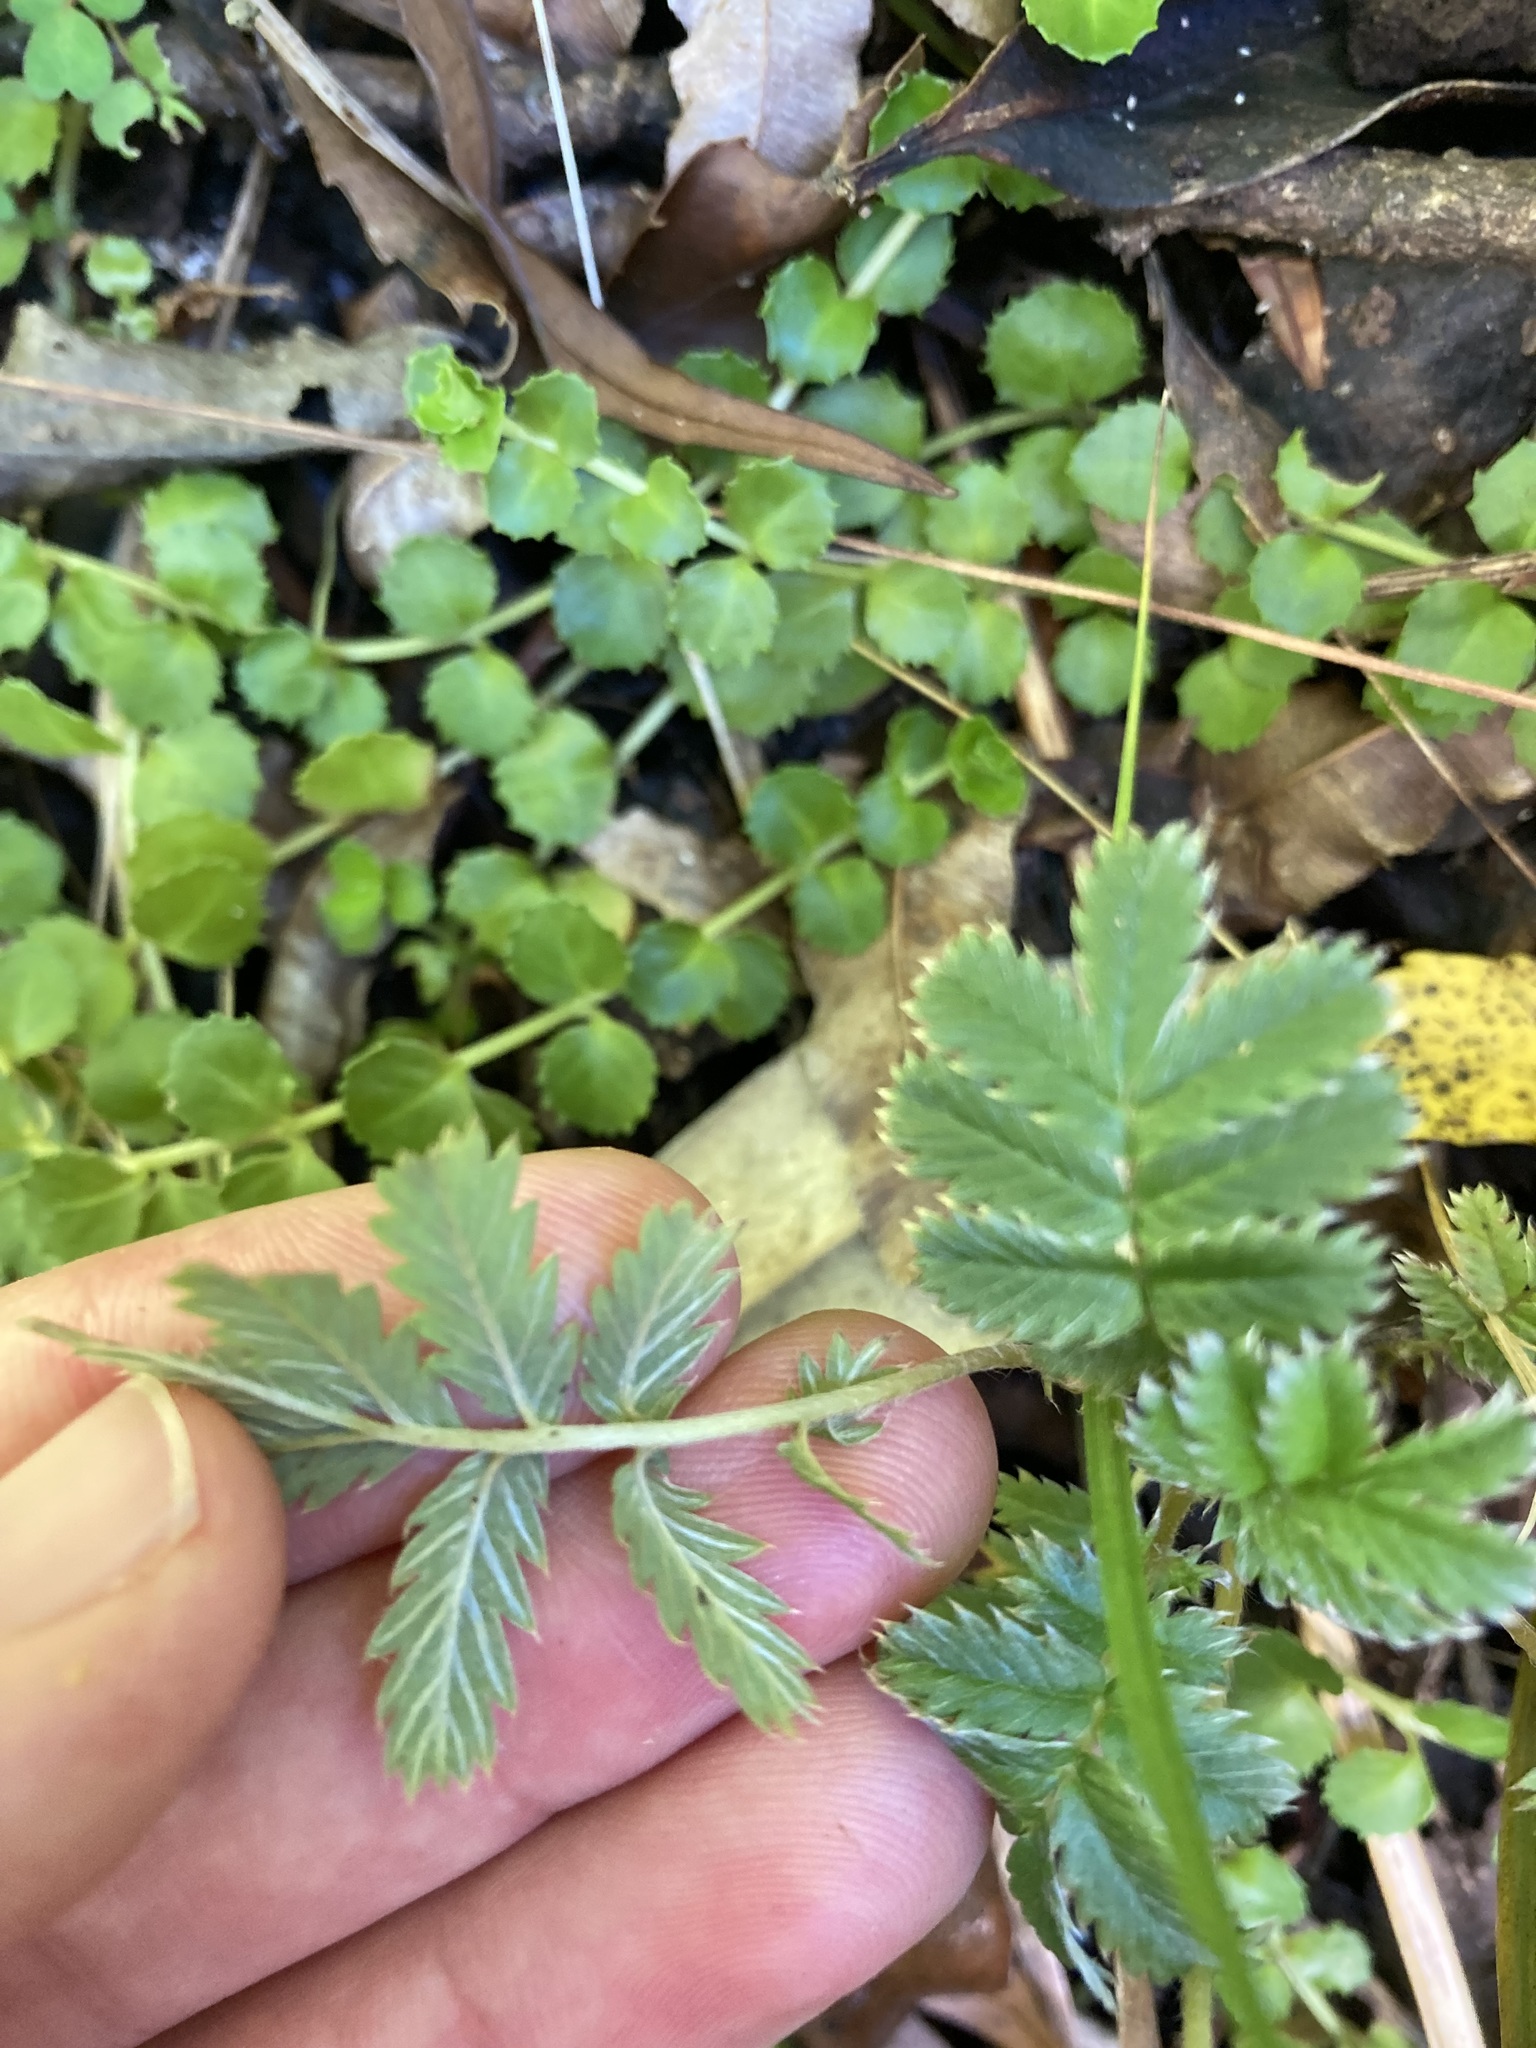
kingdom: Plantae
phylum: Tracheophyta
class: Magnoliopsida
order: Rosales
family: Rosaceae
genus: Acaena
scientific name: Acaena anserinifolia
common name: Bronze pirri-pirri-bur
